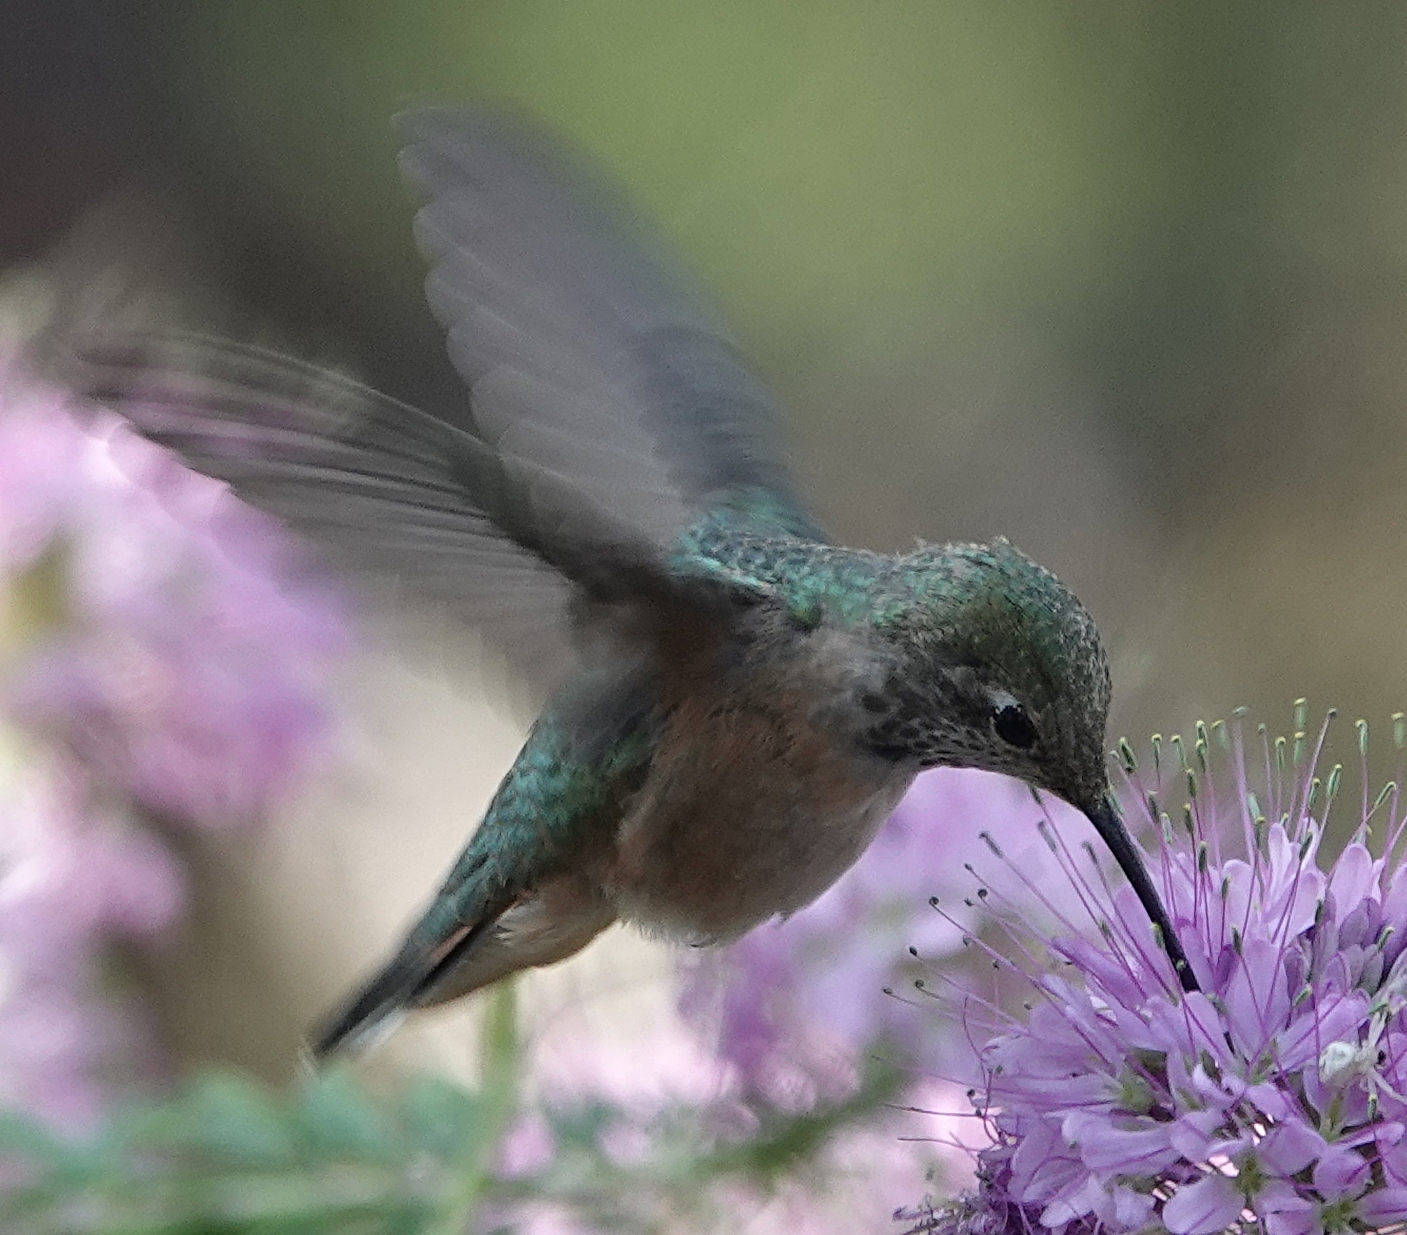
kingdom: Animalia
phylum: Chordata
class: Aves
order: Apodiformes
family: Trochilidae
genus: Selasphorus
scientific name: Selasphorus platycercus
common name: Broad-tailed hummingbird
